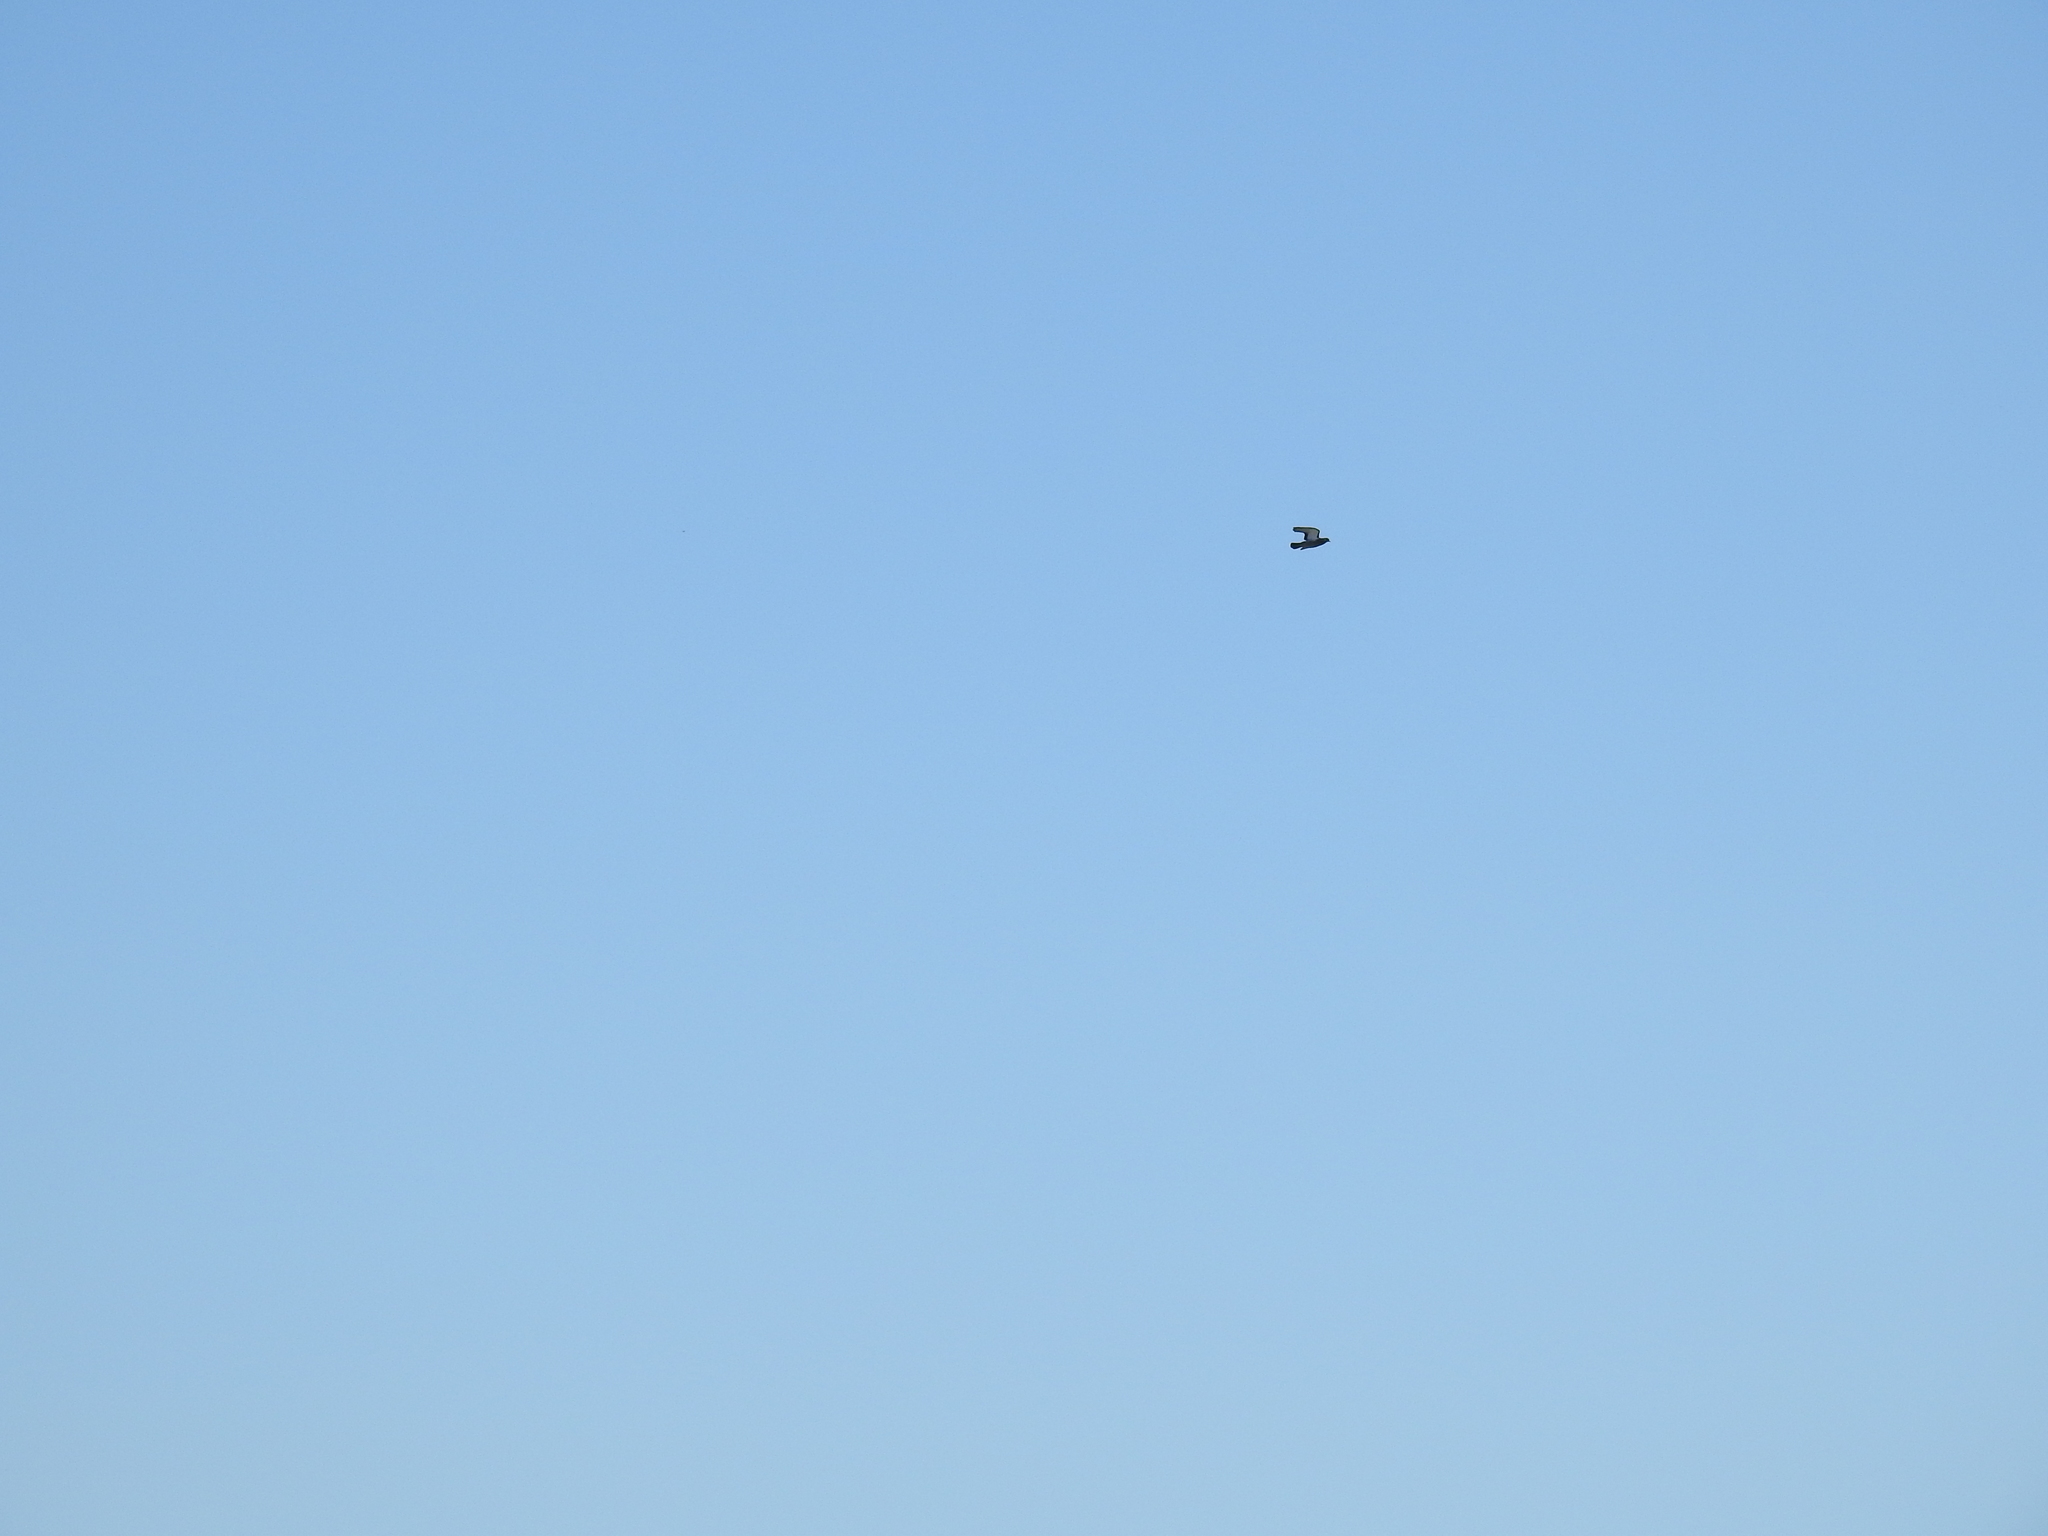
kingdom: Animalia
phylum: Chordata
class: Aves
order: Columbiformes
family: Columbidae
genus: Columba
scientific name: Columba livia
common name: Rock pigeon
